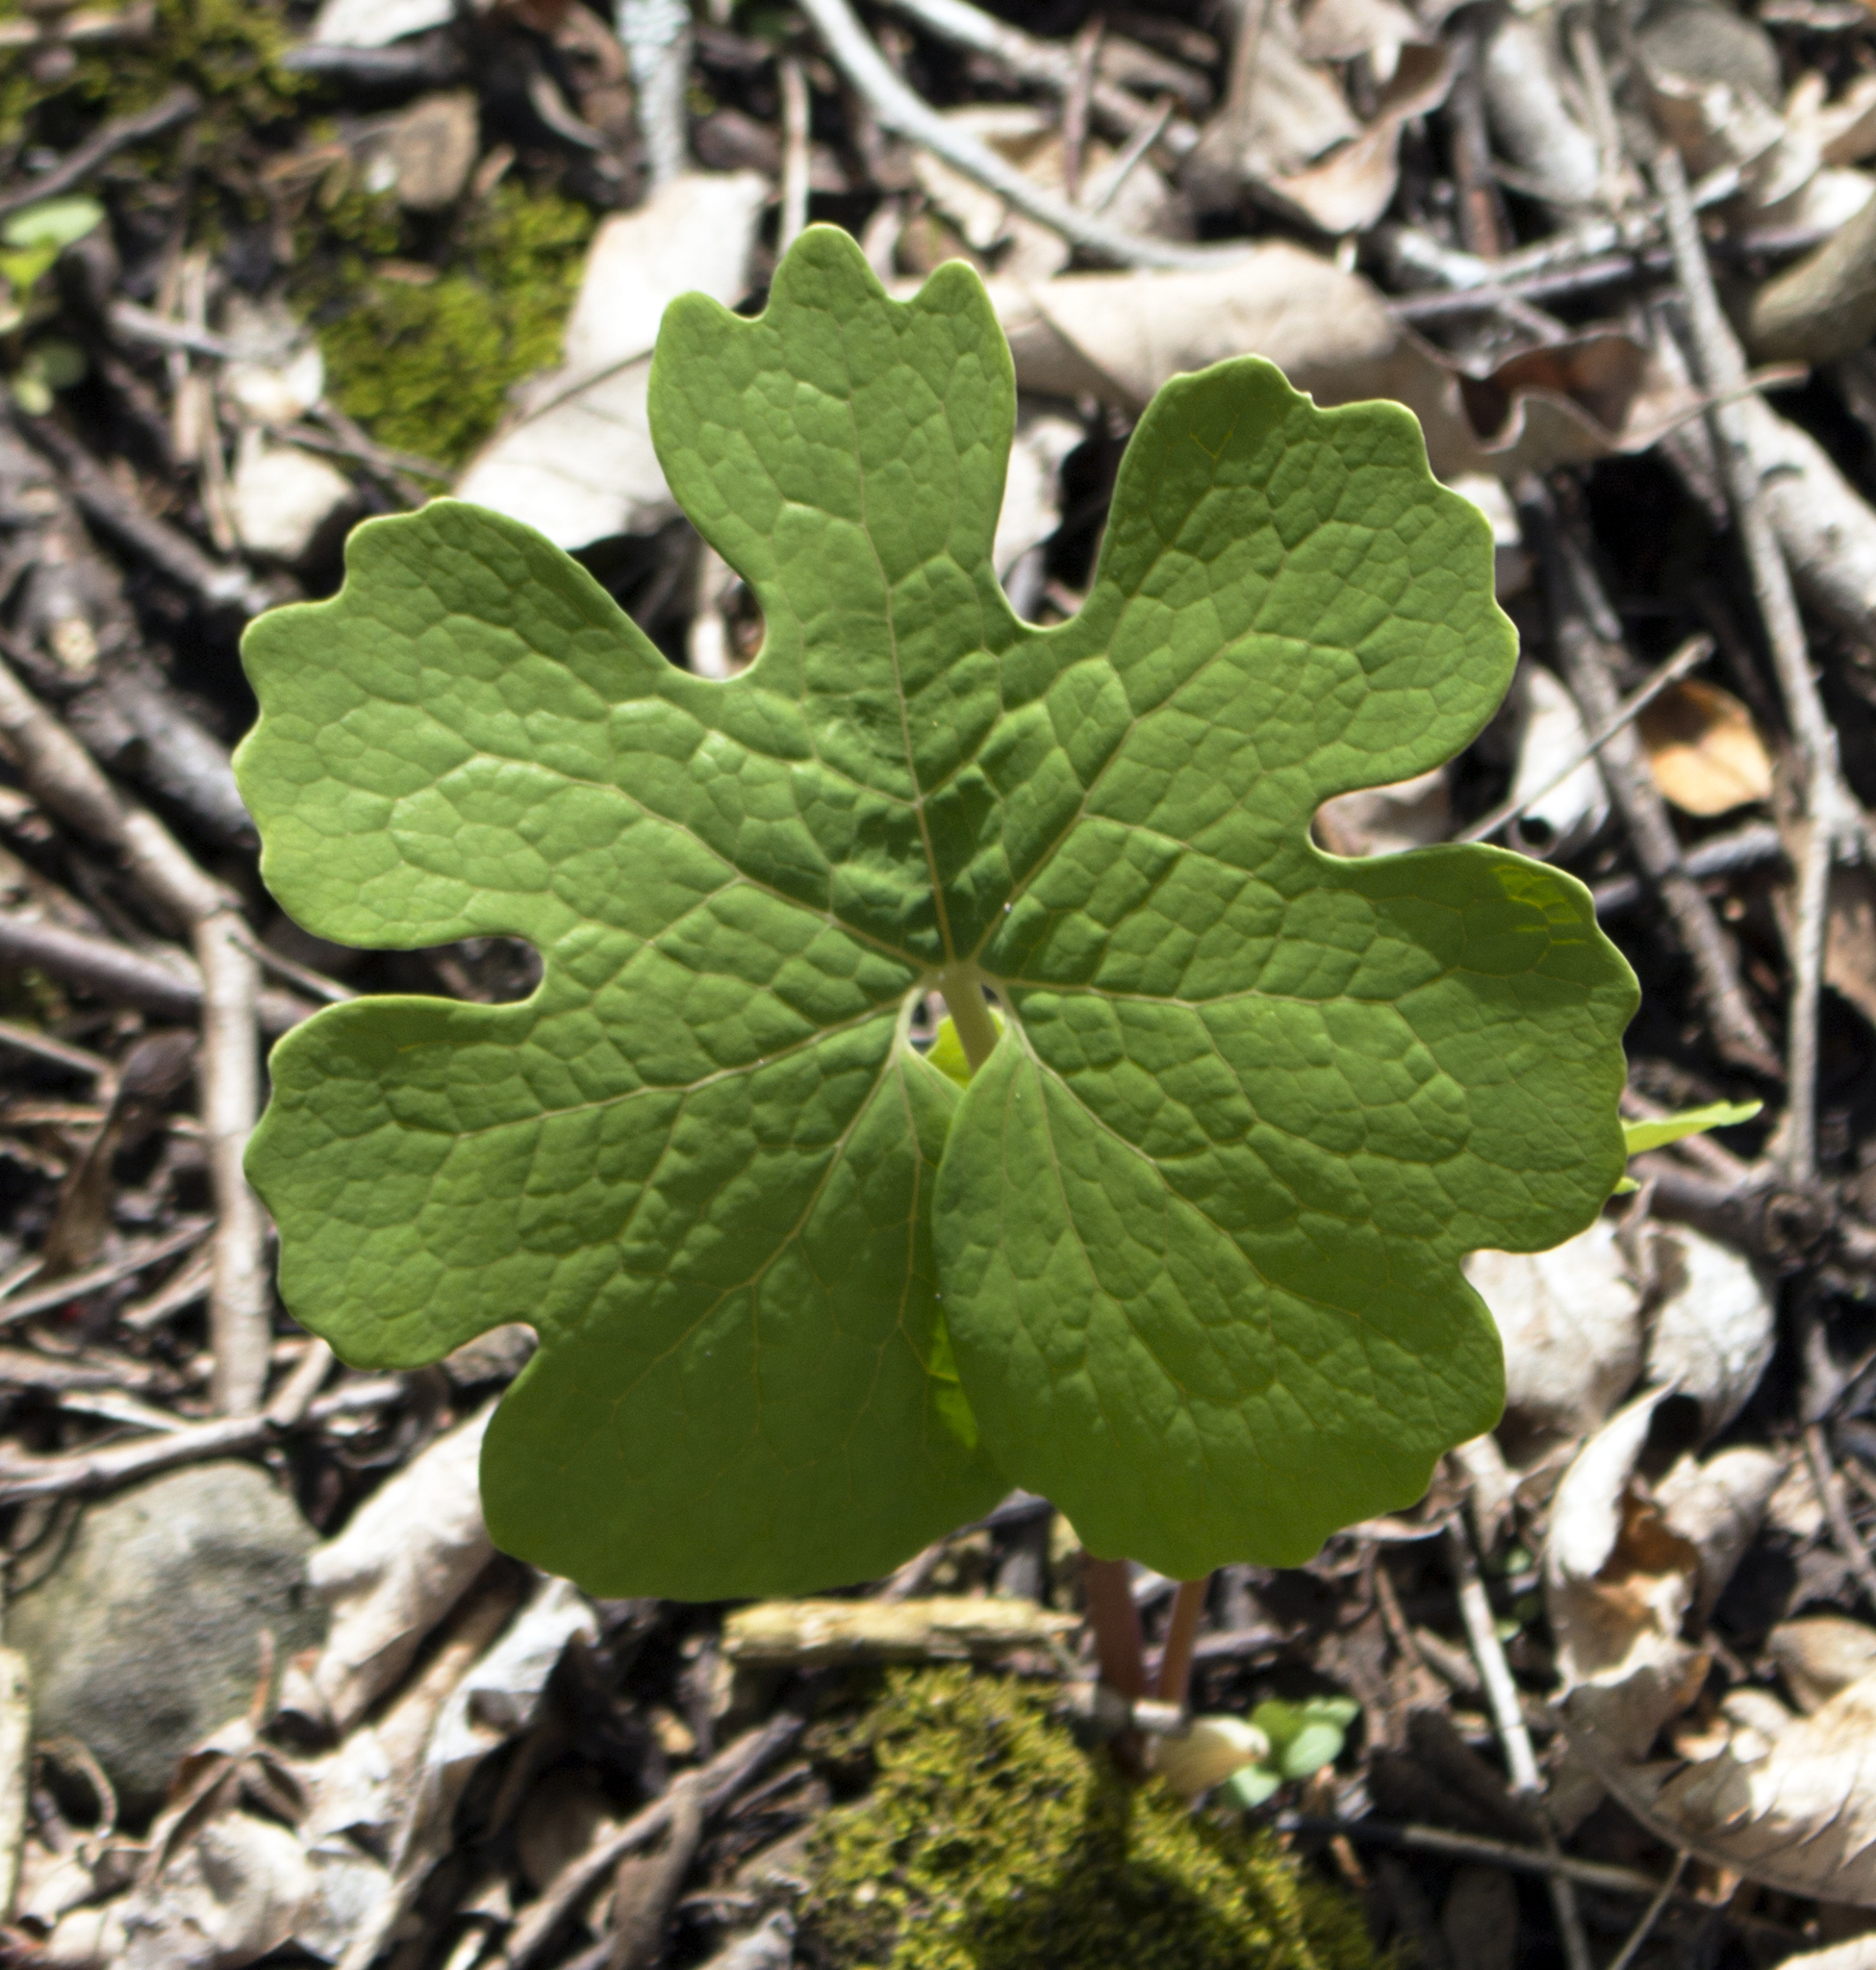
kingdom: Plantae
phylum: Tracheophyta
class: Magnoliopsida
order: Ranunculales
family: Papaveraceae
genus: Sanguinaria
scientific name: Sanguinaria canadensis
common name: Bloodroot
